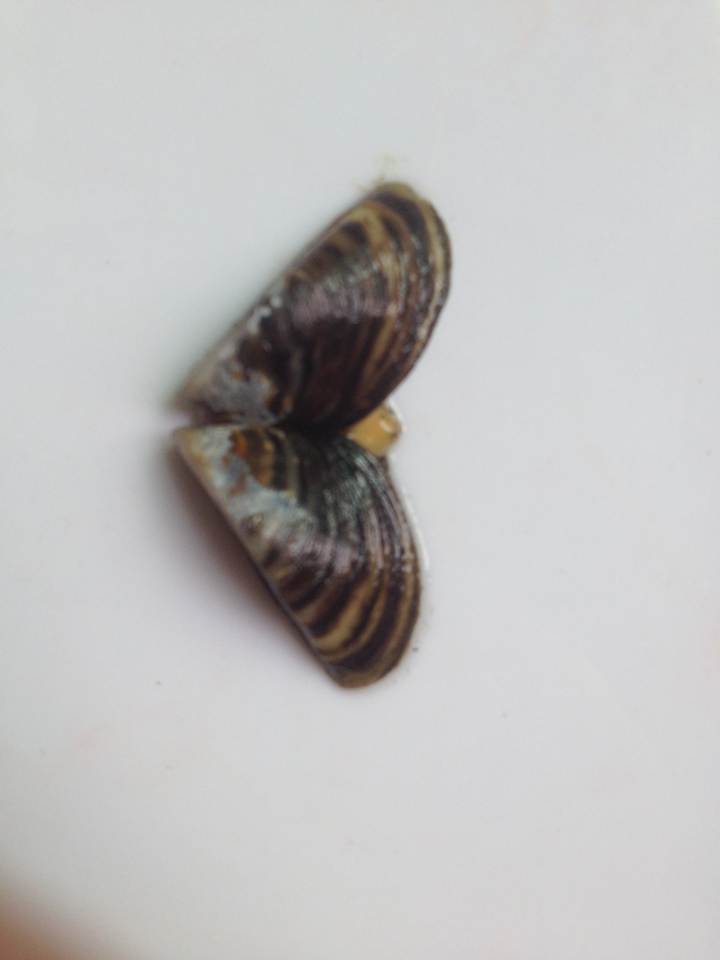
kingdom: Animalia
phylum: Mollusca
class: Bivalvia
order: Myida
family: Dreissenidae
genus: Dreissena
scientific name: Dreissena polymorpha
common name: Zebra mussel
